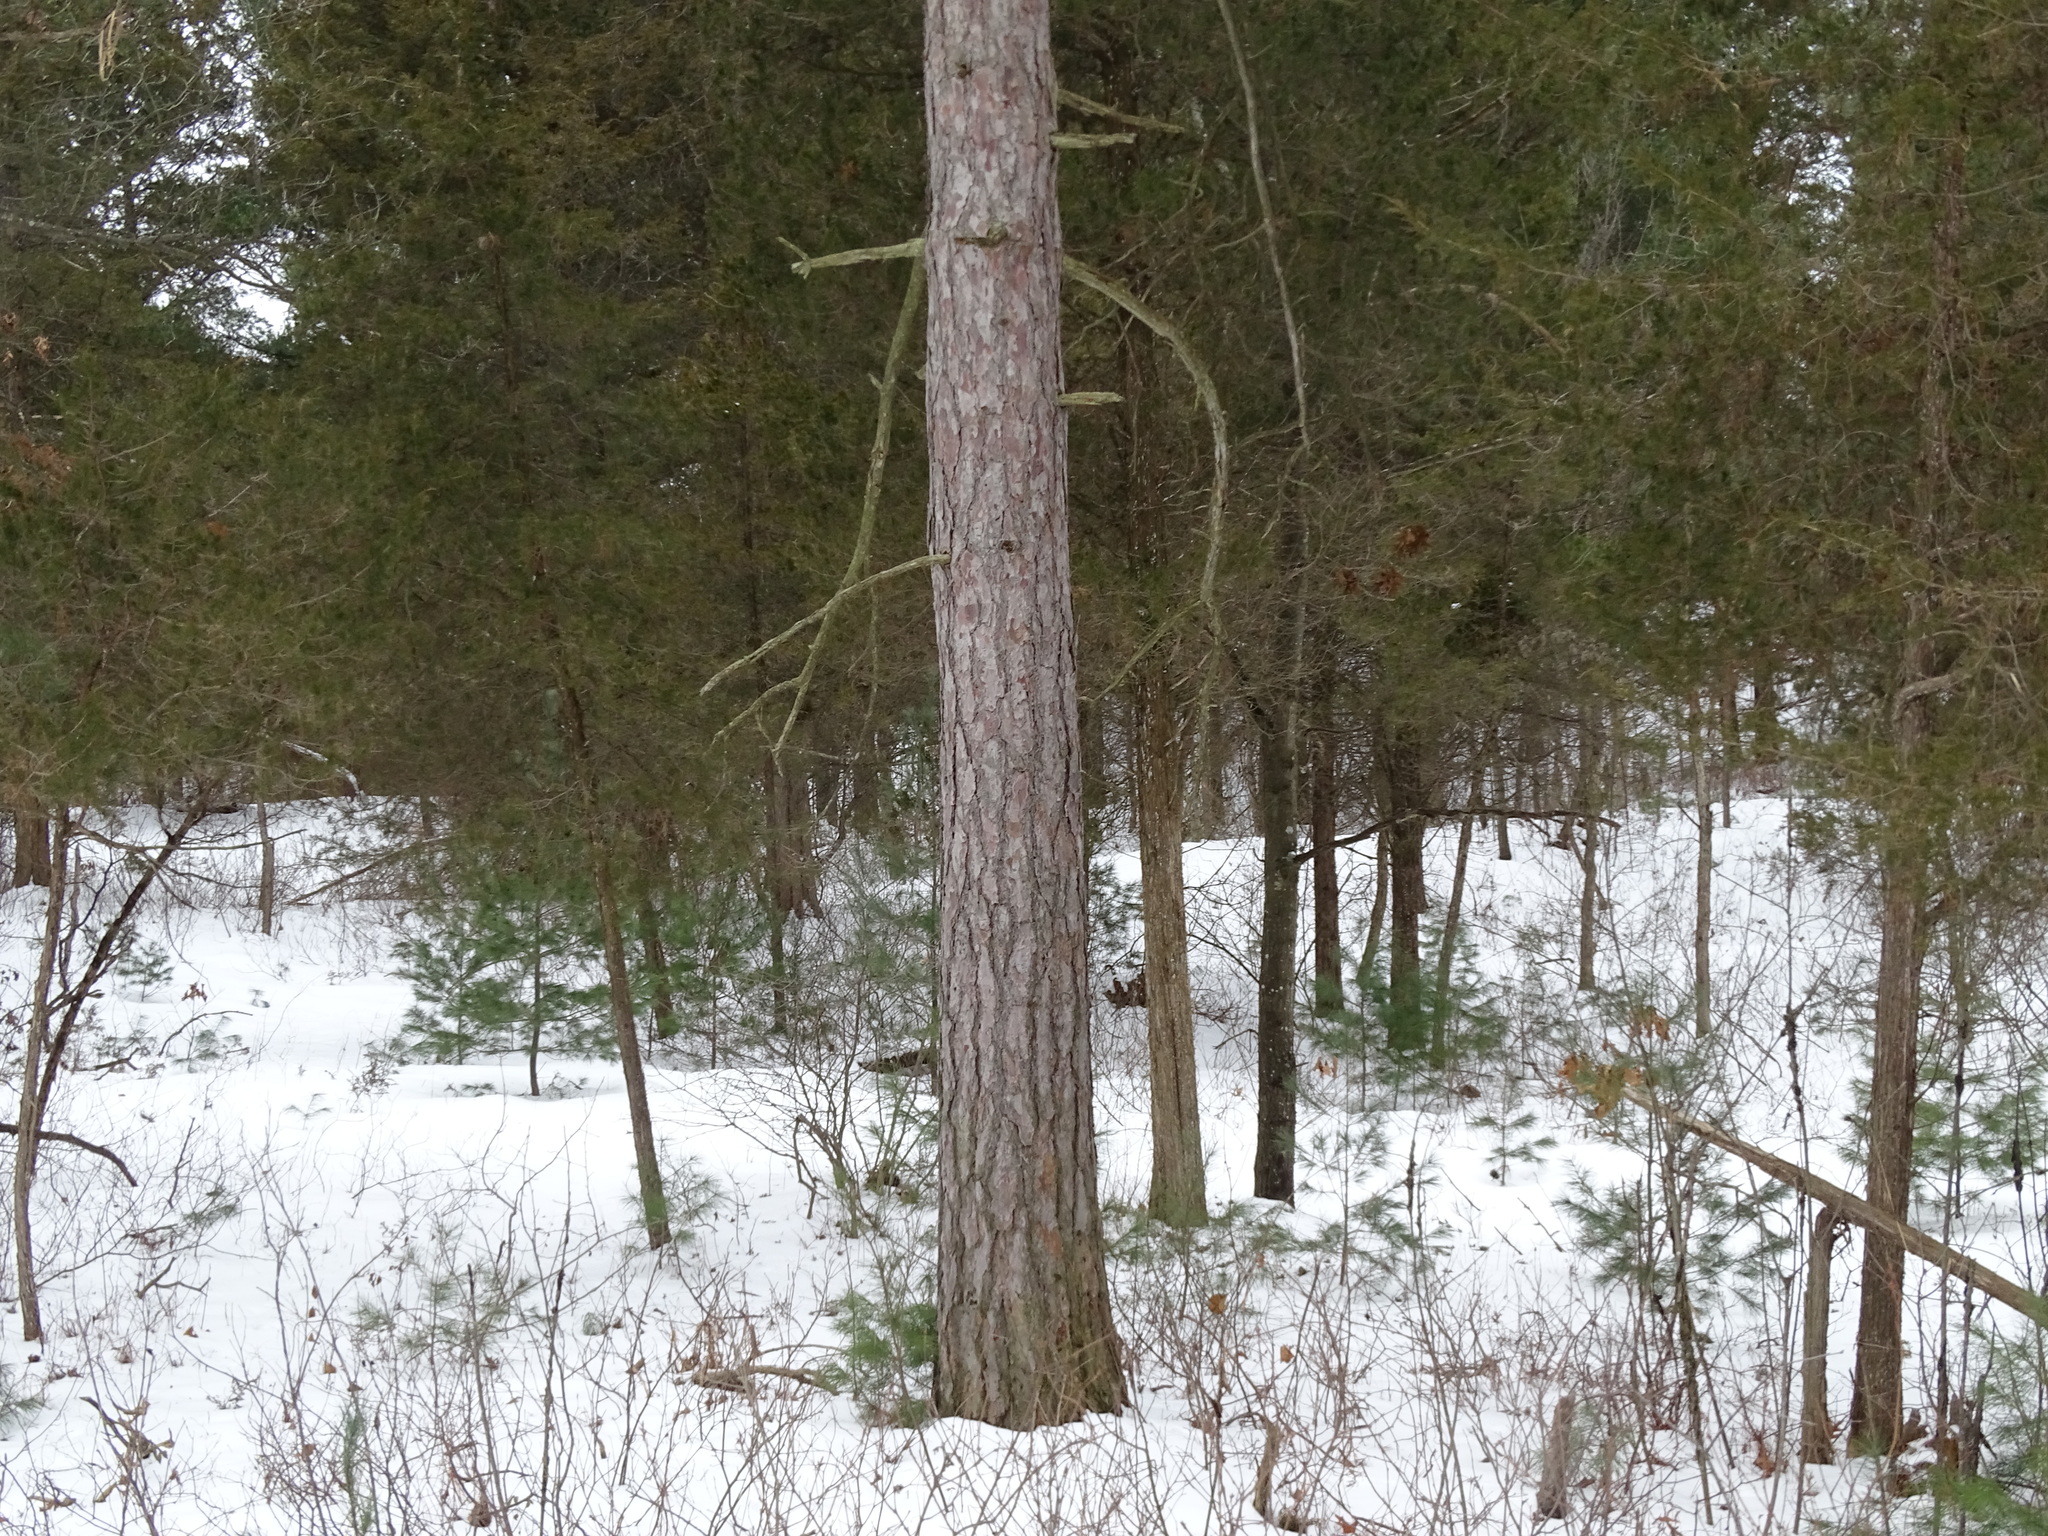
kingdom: Plantae
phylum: Tracheophyta
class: Pinopsida
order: Pinales
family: Pinaceae
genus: Pinus
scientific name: Pinus resinosa
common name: Norway pine
